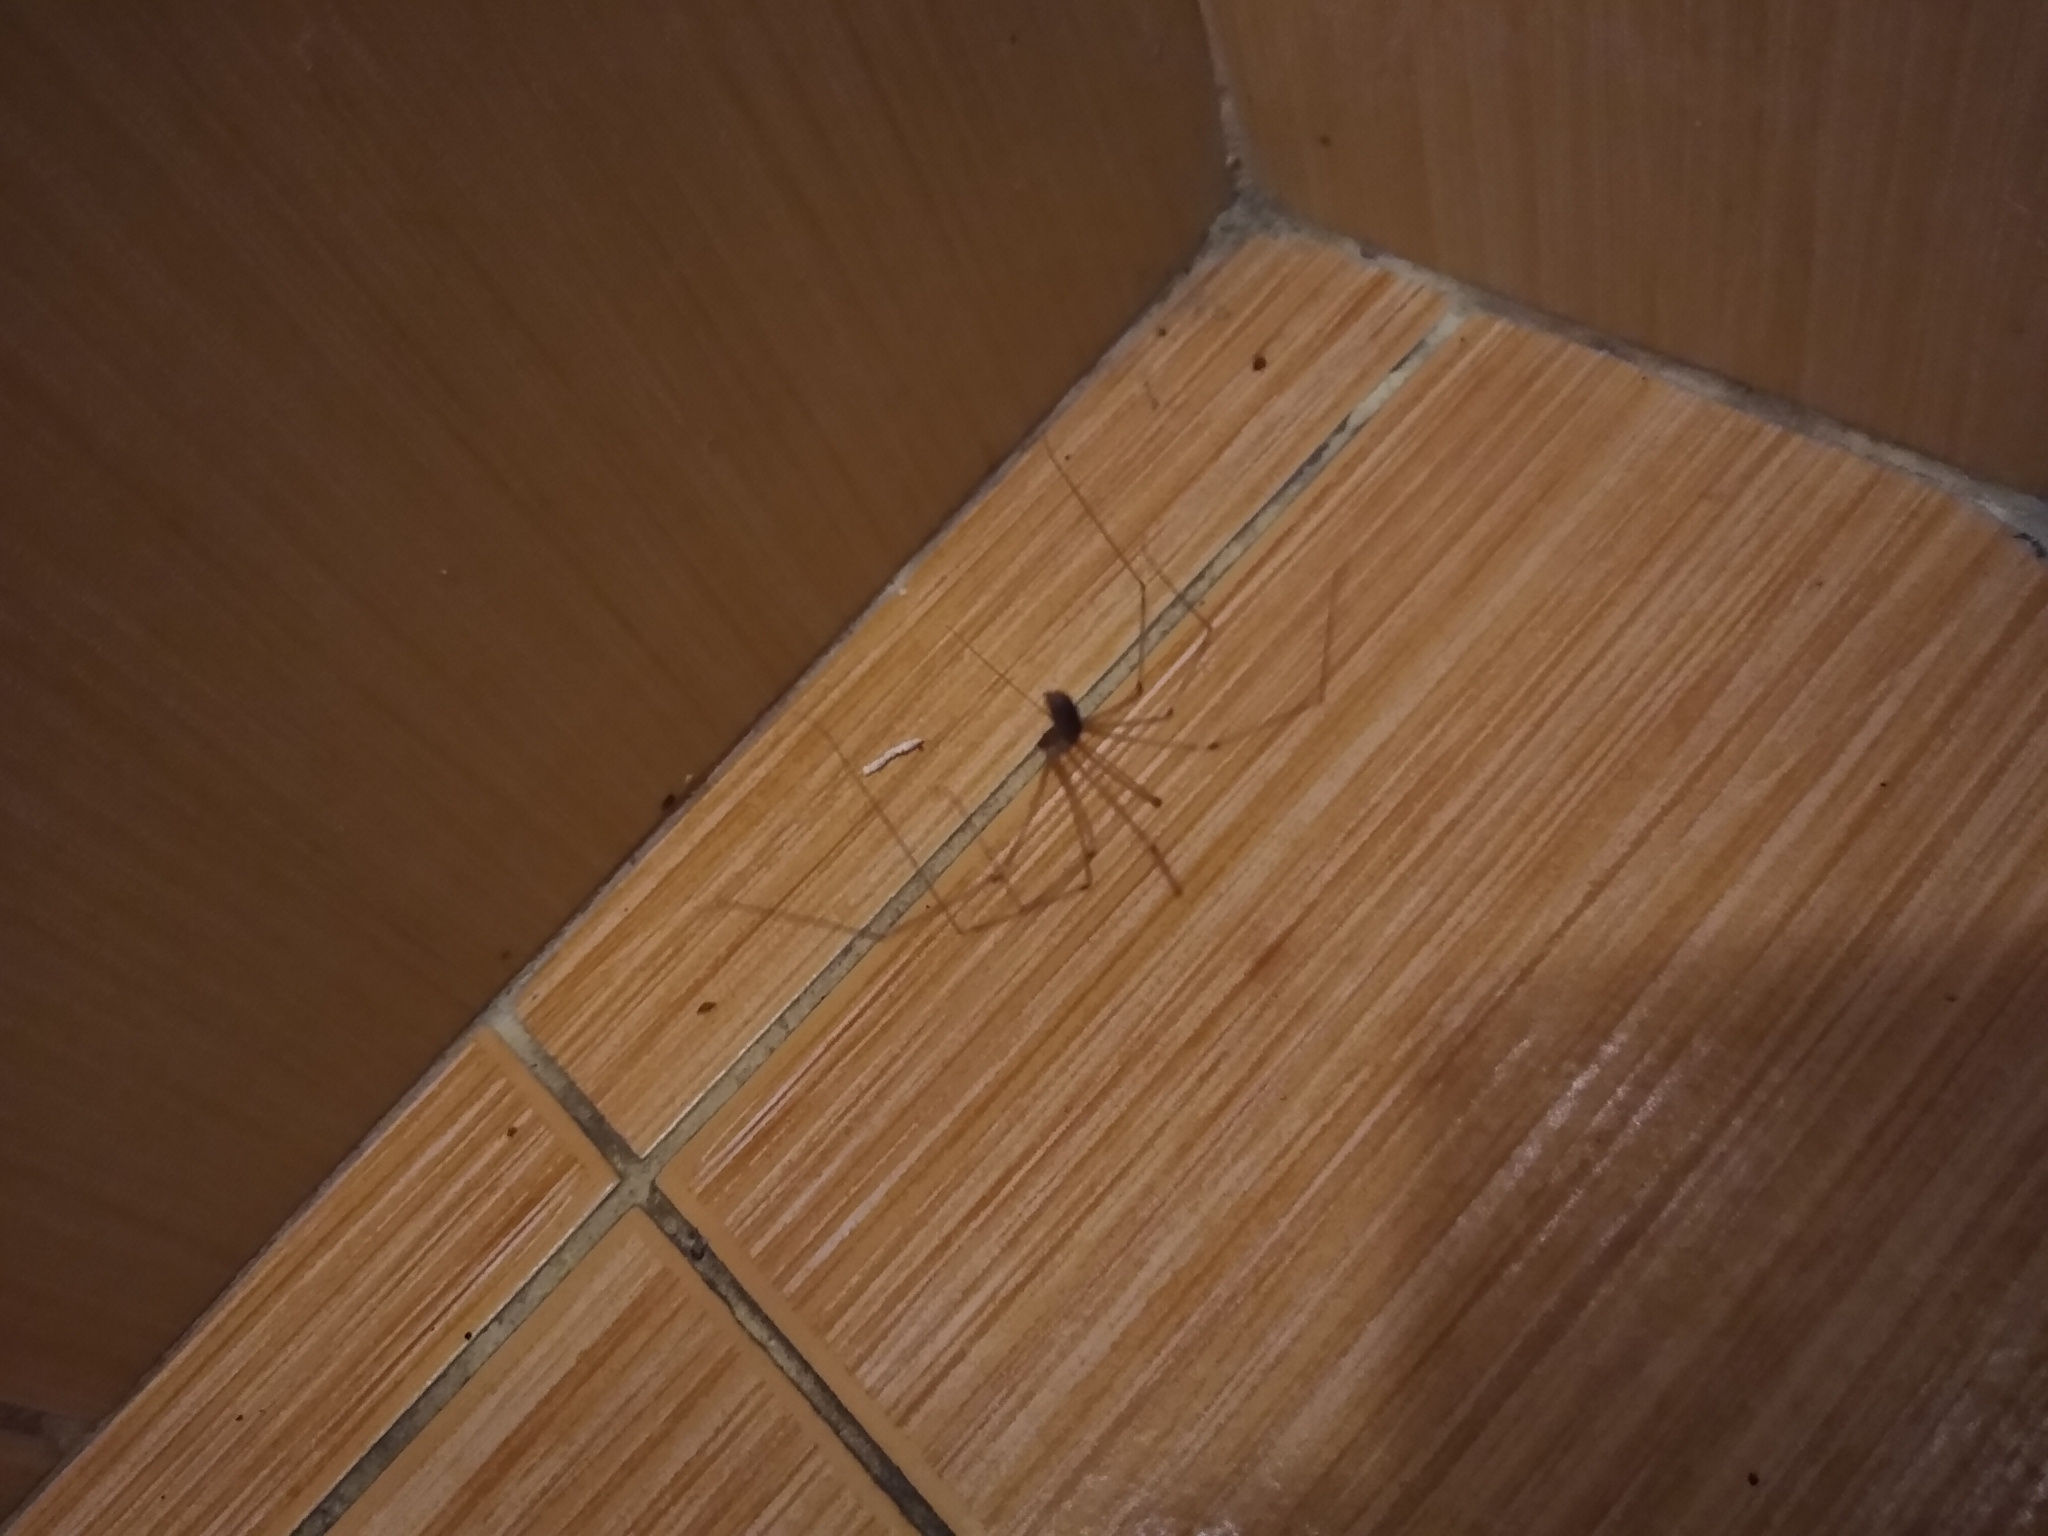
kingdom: Animalia
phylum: Arthropoda
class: Arachnida
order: Araneae
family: Pholcidae
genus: Pholcus
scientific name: Pholcus phalangioides
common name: Longbodied cellar spider
